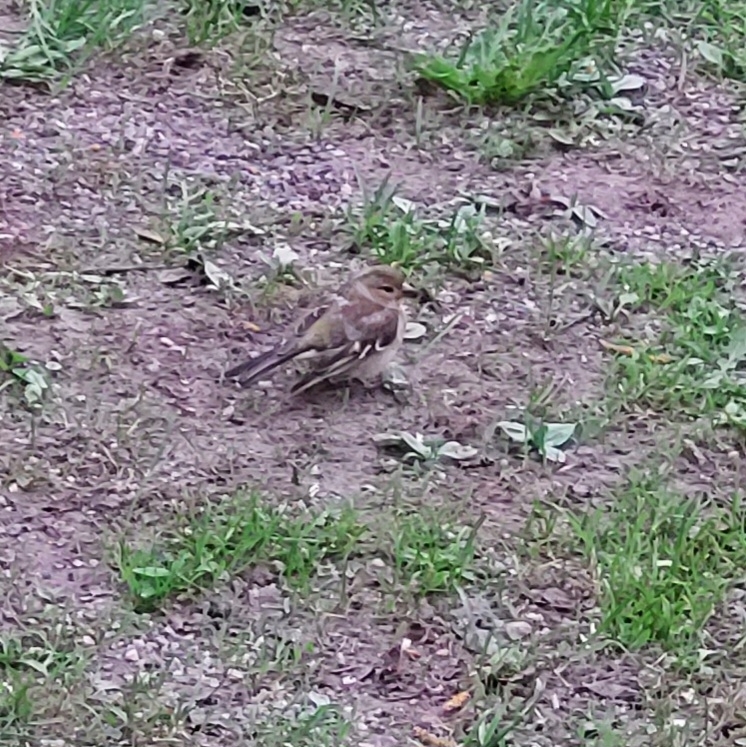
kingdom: Animalia
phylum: Chordata
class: Aves
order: Passeriformes
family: Fringillidae
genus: Fringilla
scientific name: Fringilla coelebs
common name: Common chaffinch
